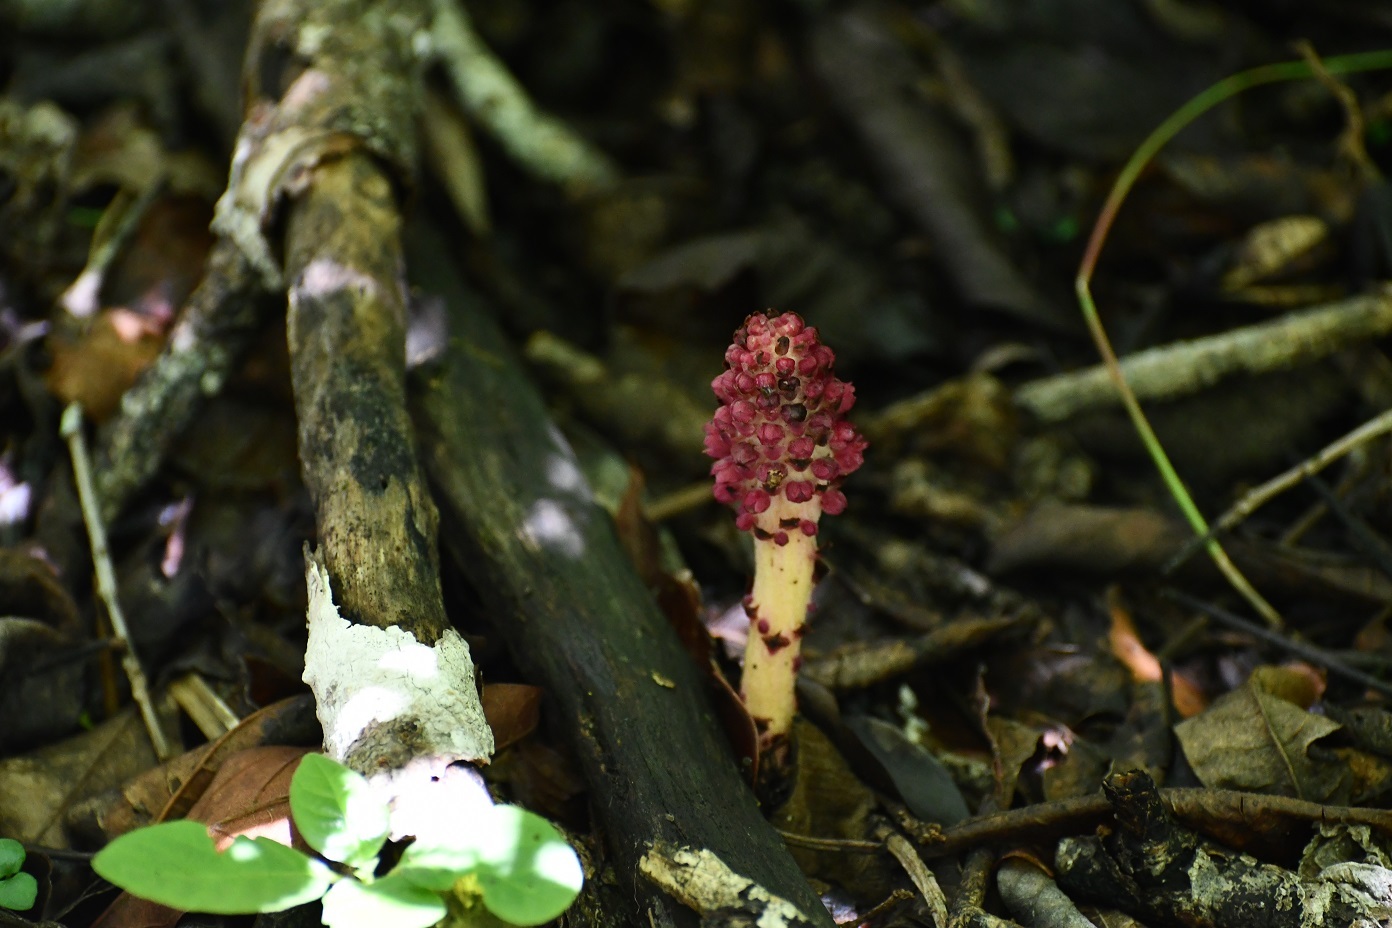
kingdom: Plantae
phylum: Tracheophyta
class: Magnoliopsida
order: Malvales
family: Cytinaceae
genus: Bdallophyton
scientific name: Bdallophyton oxylepis
